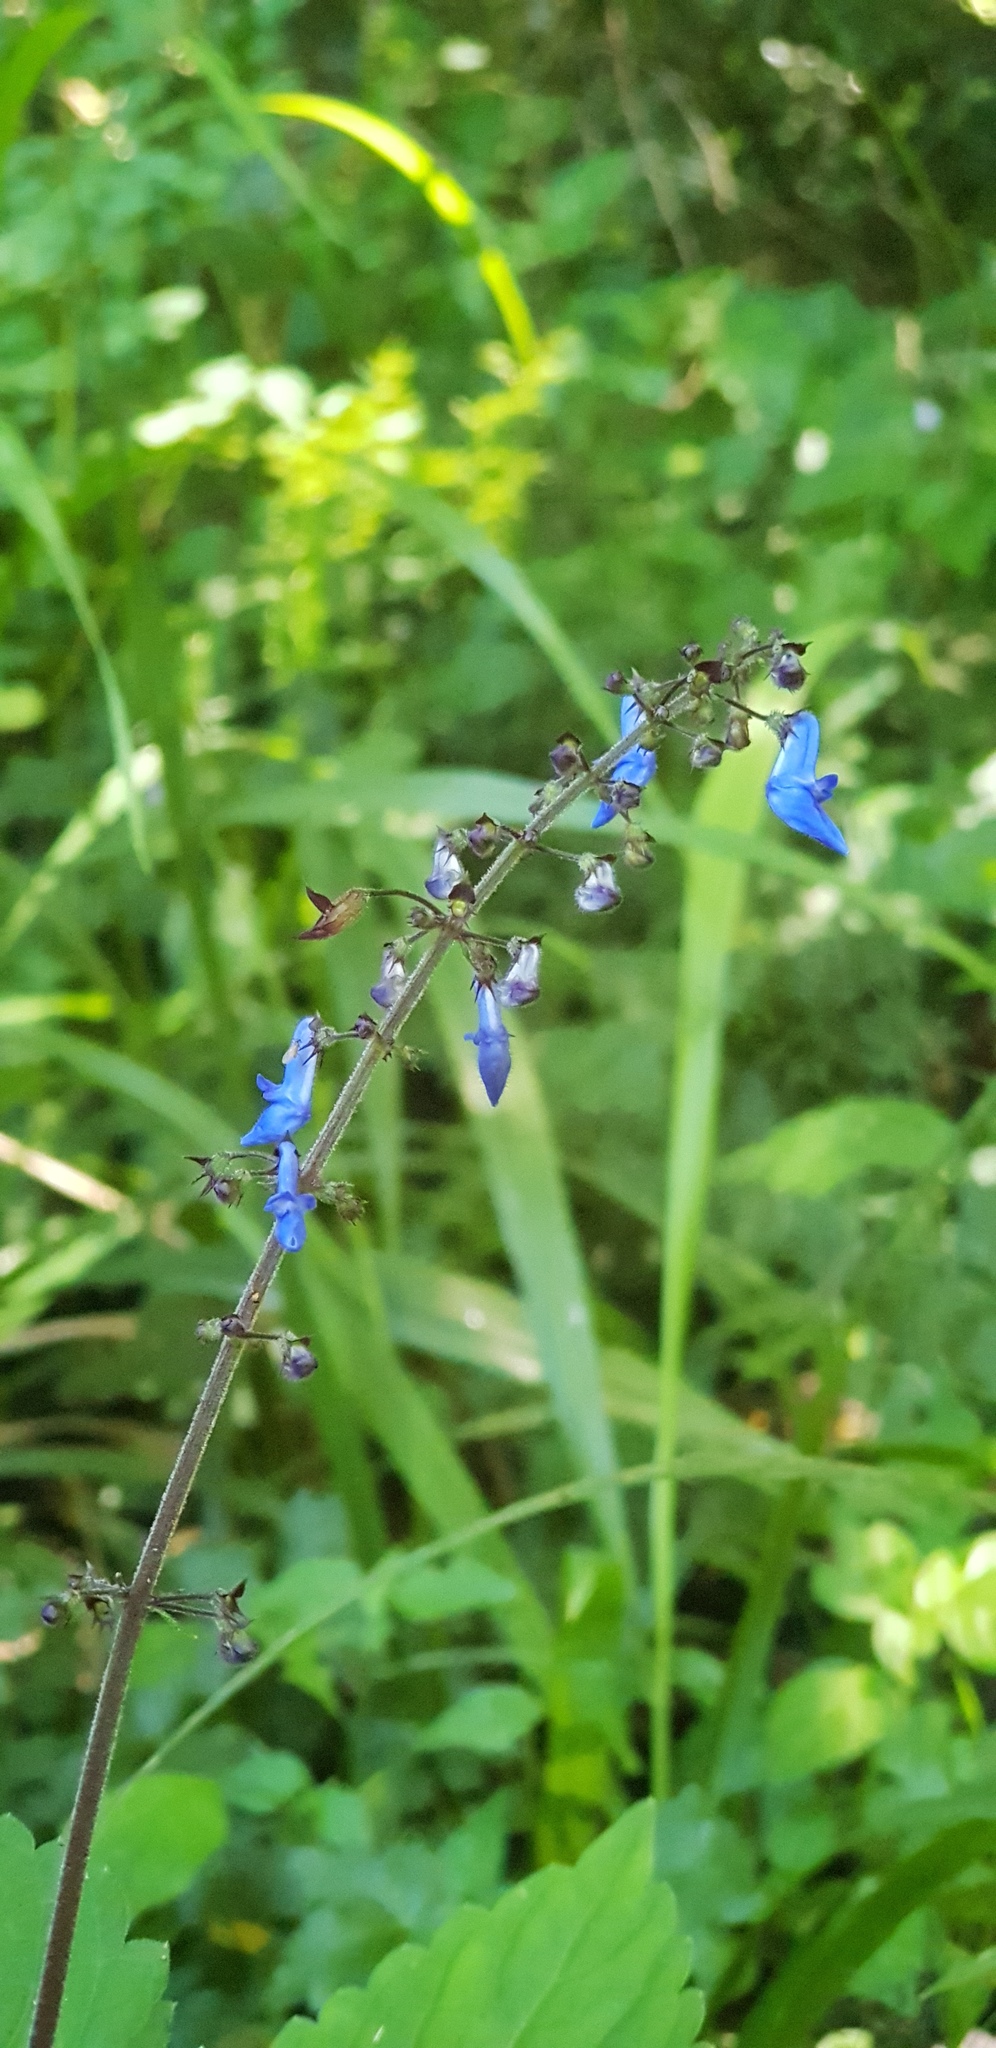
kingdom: Plantae
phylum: Tracheophyta
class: Magnoliopsida
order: Lamiales
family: Lamiaceae
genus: Coleus
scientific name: Coleus dolichopodus
